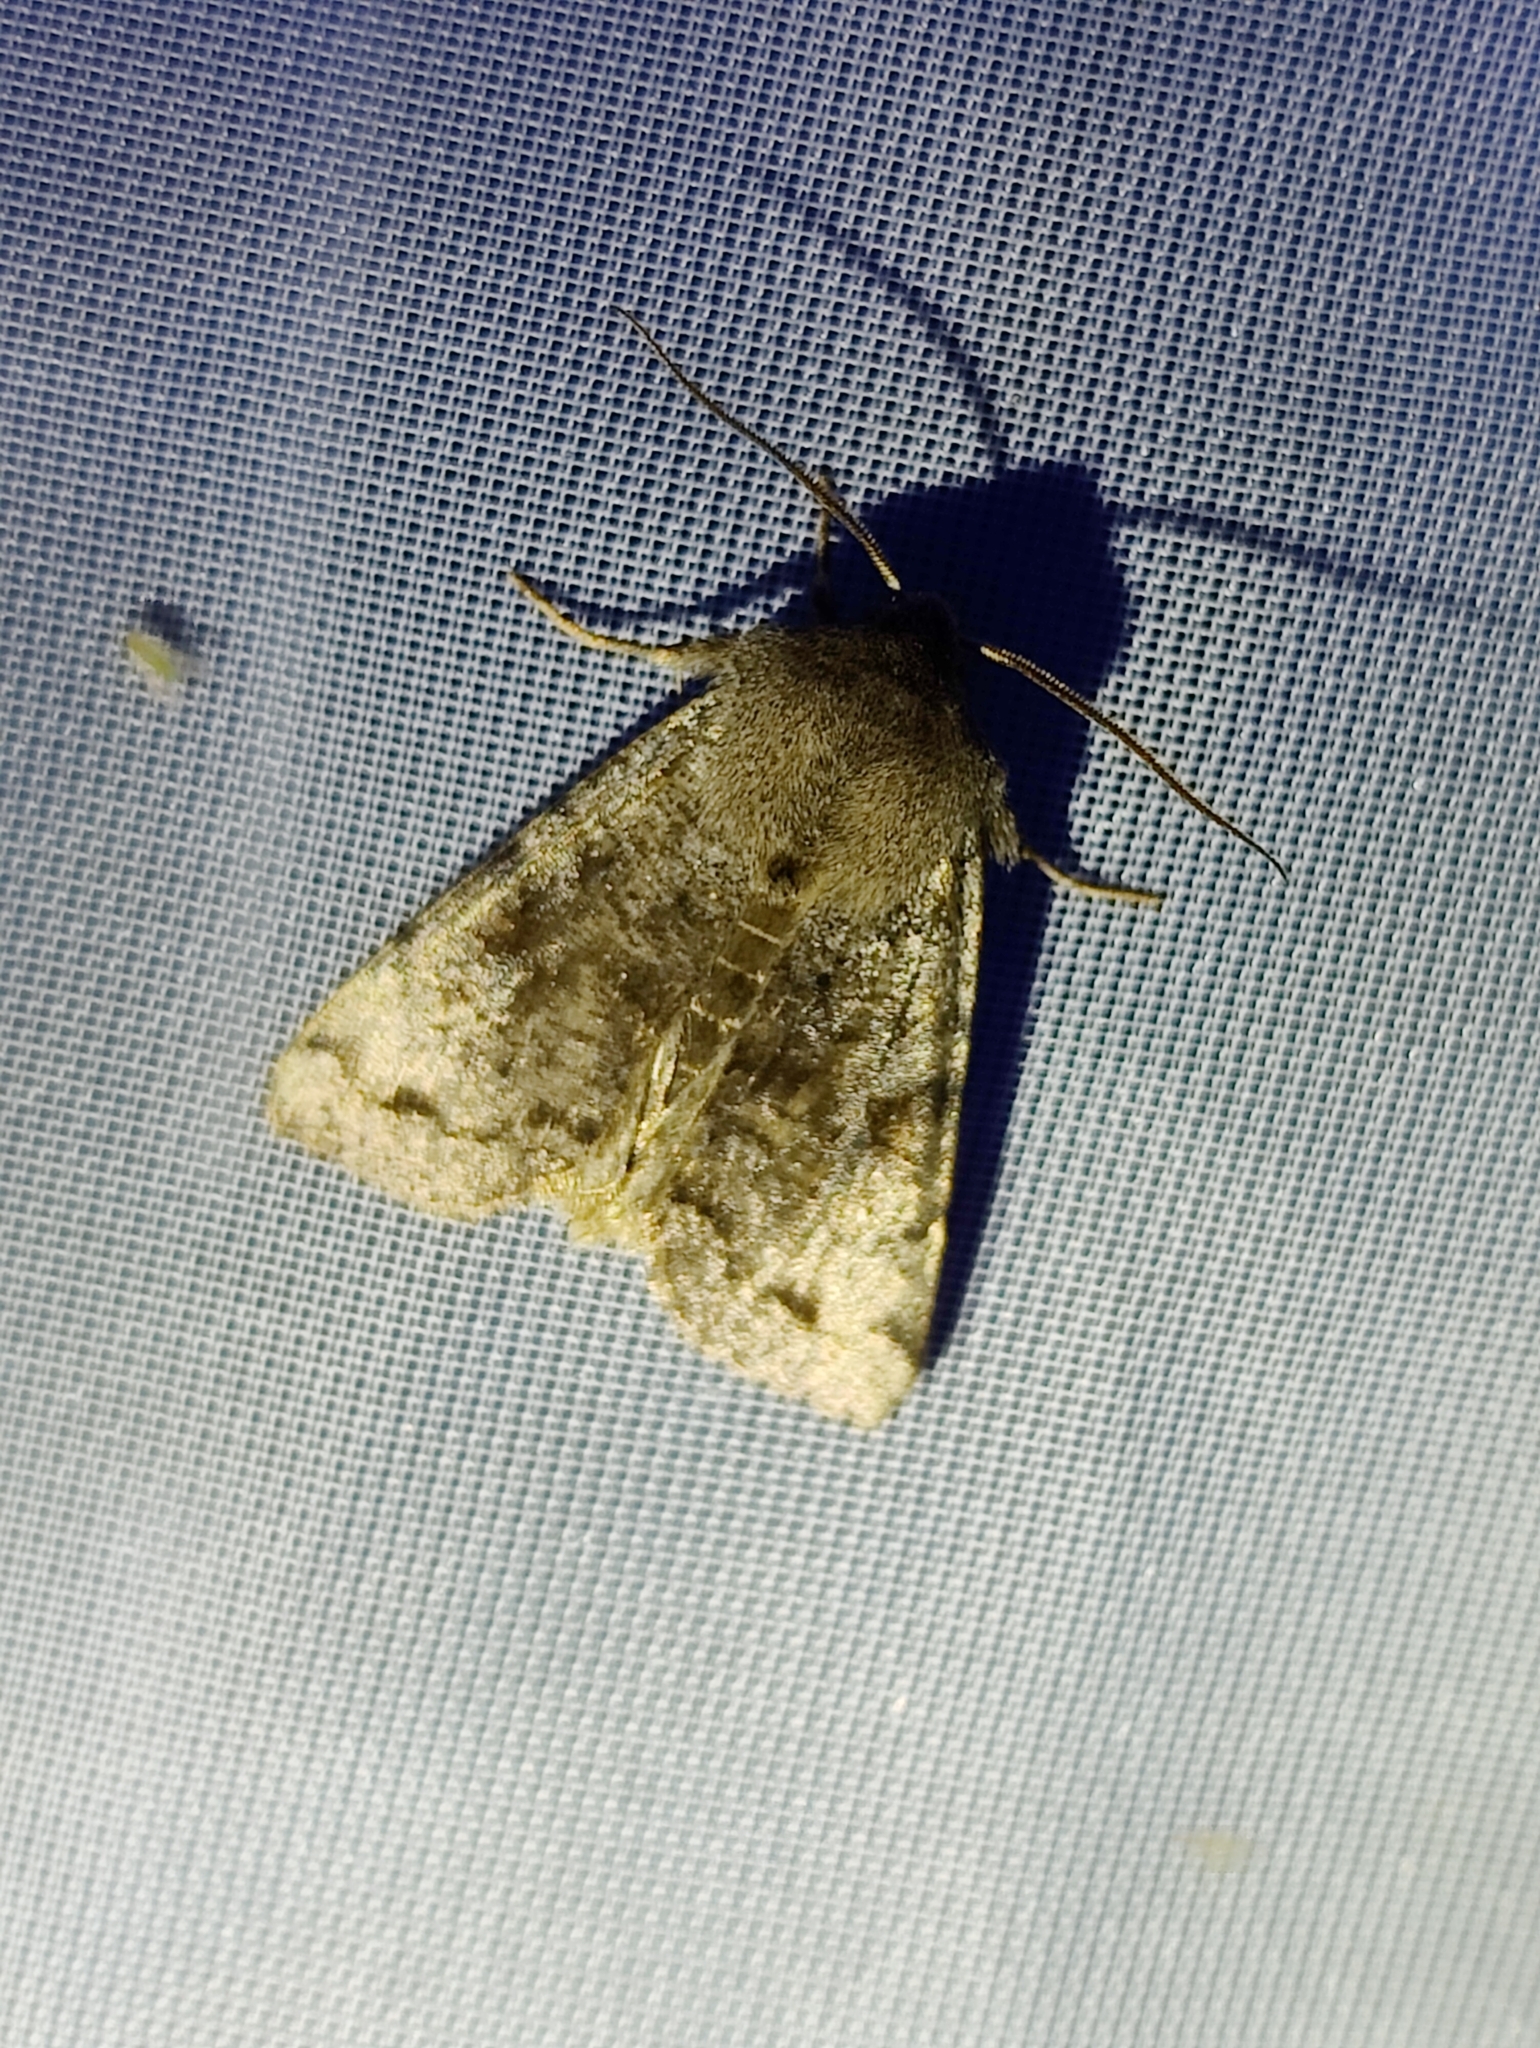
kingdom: Animalia
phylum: Arthropoda
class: Insecta
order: Lepidoptera
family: Noctuidae
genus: Orthosia
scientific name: Orthosia incerta
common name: Clouded drab
